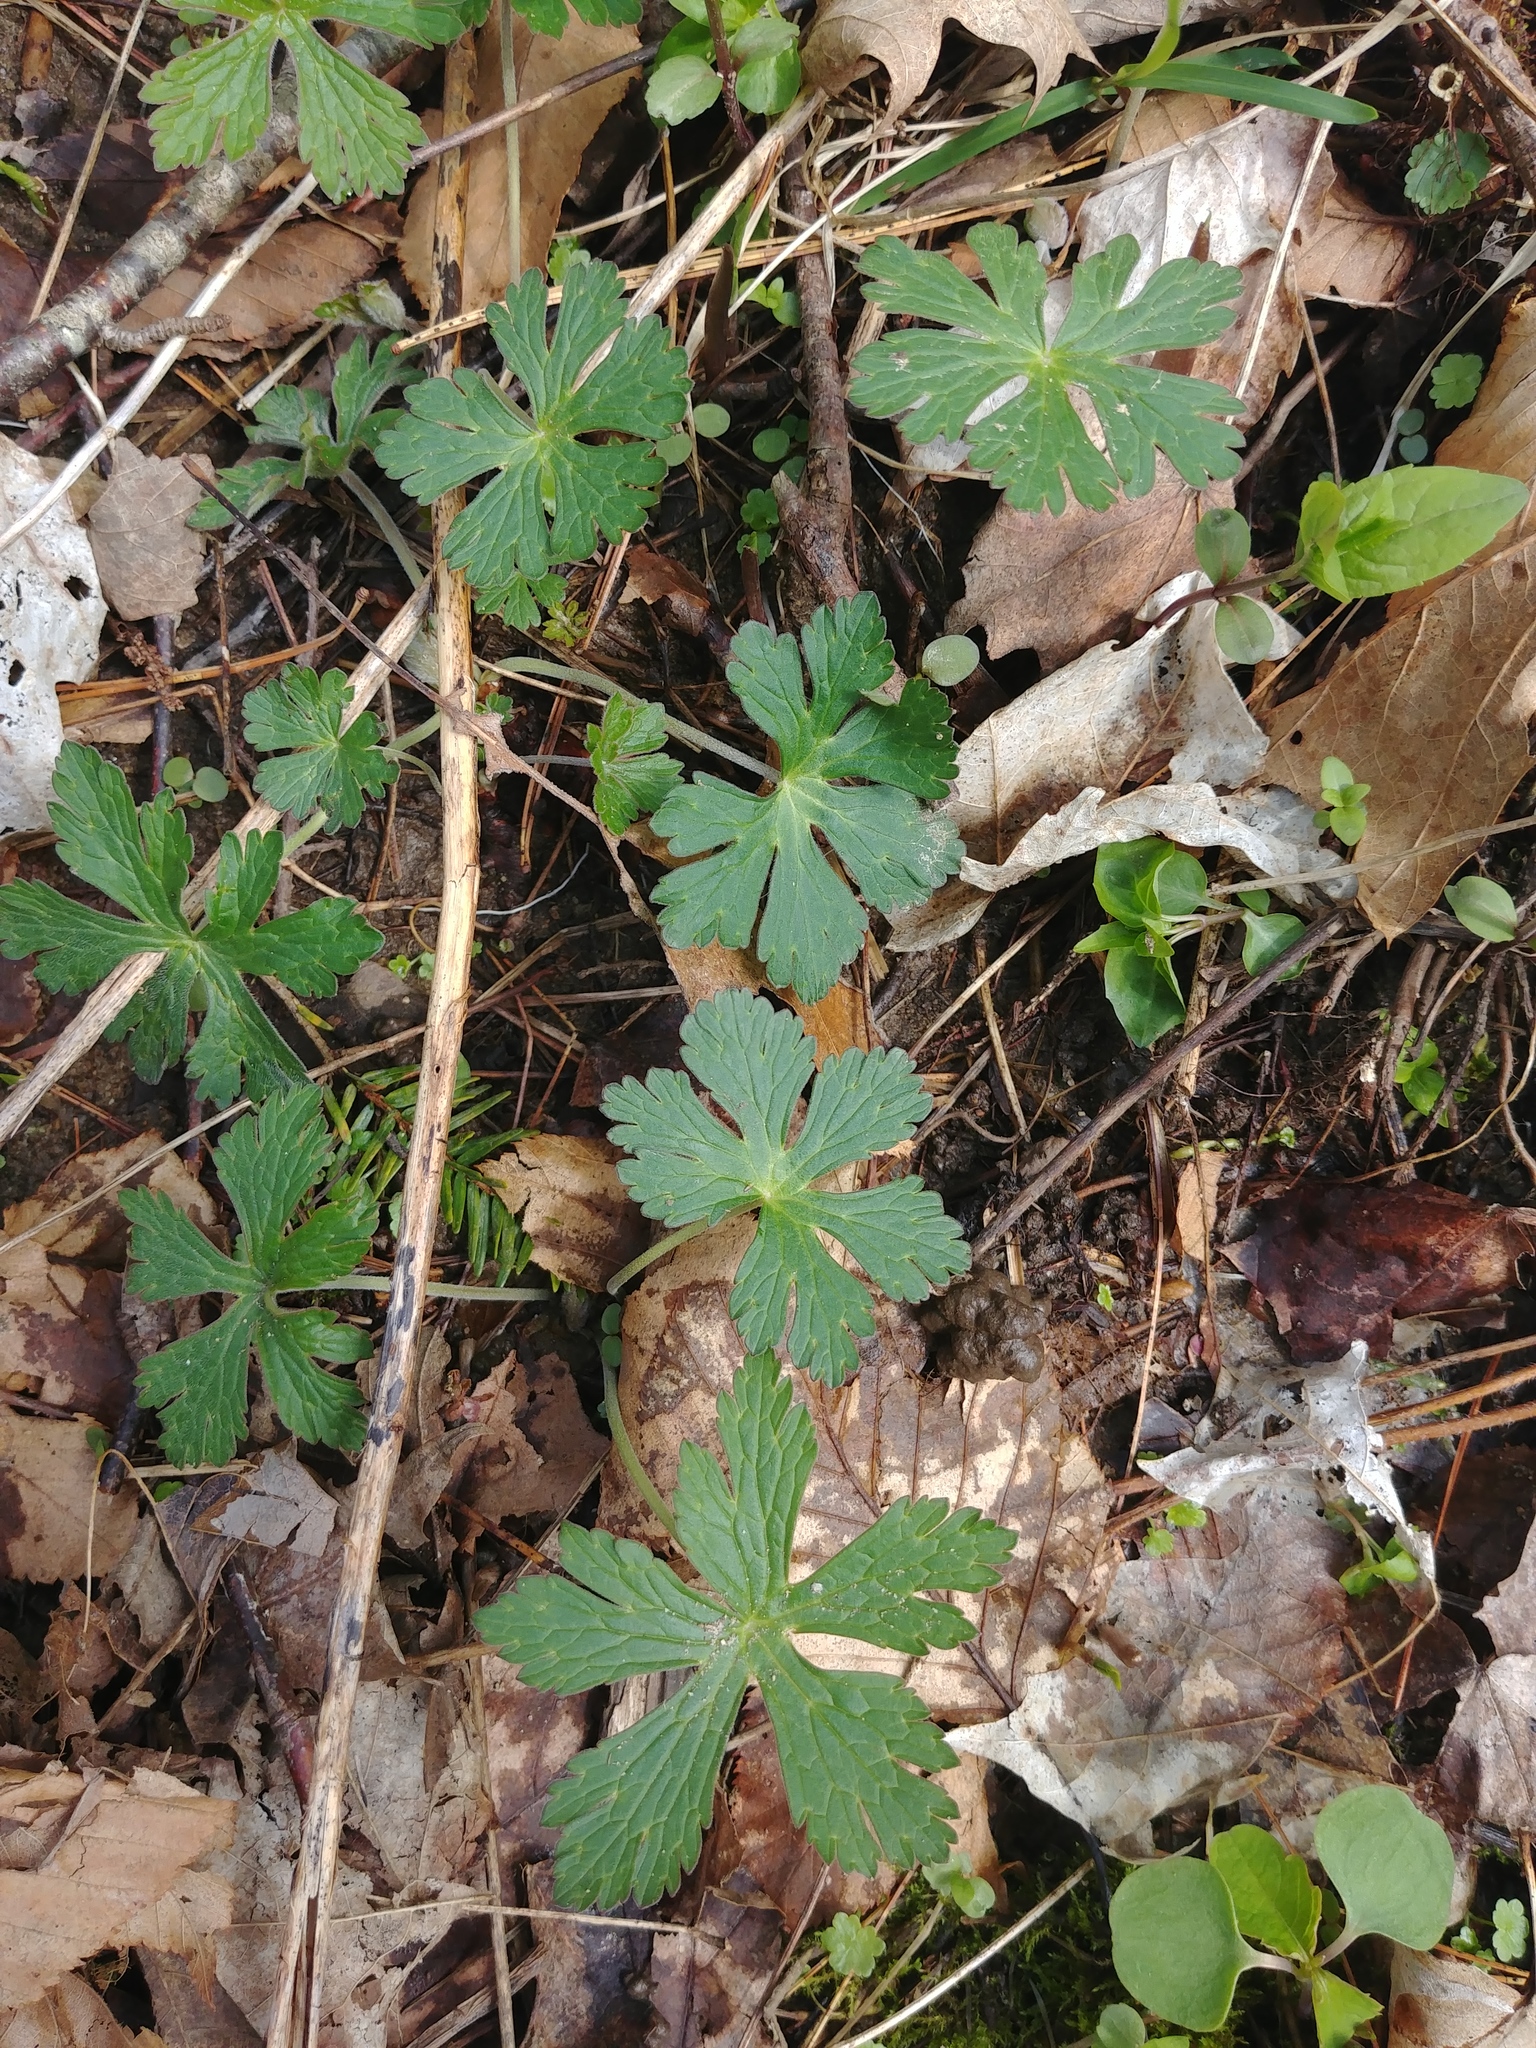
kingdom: Plantae
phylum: Tracheophyta
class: Magnoliopsida
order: Geraniales
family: Geraniaceae
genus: Geranium
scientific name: Geranium maculatum
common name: Spotted geranium
